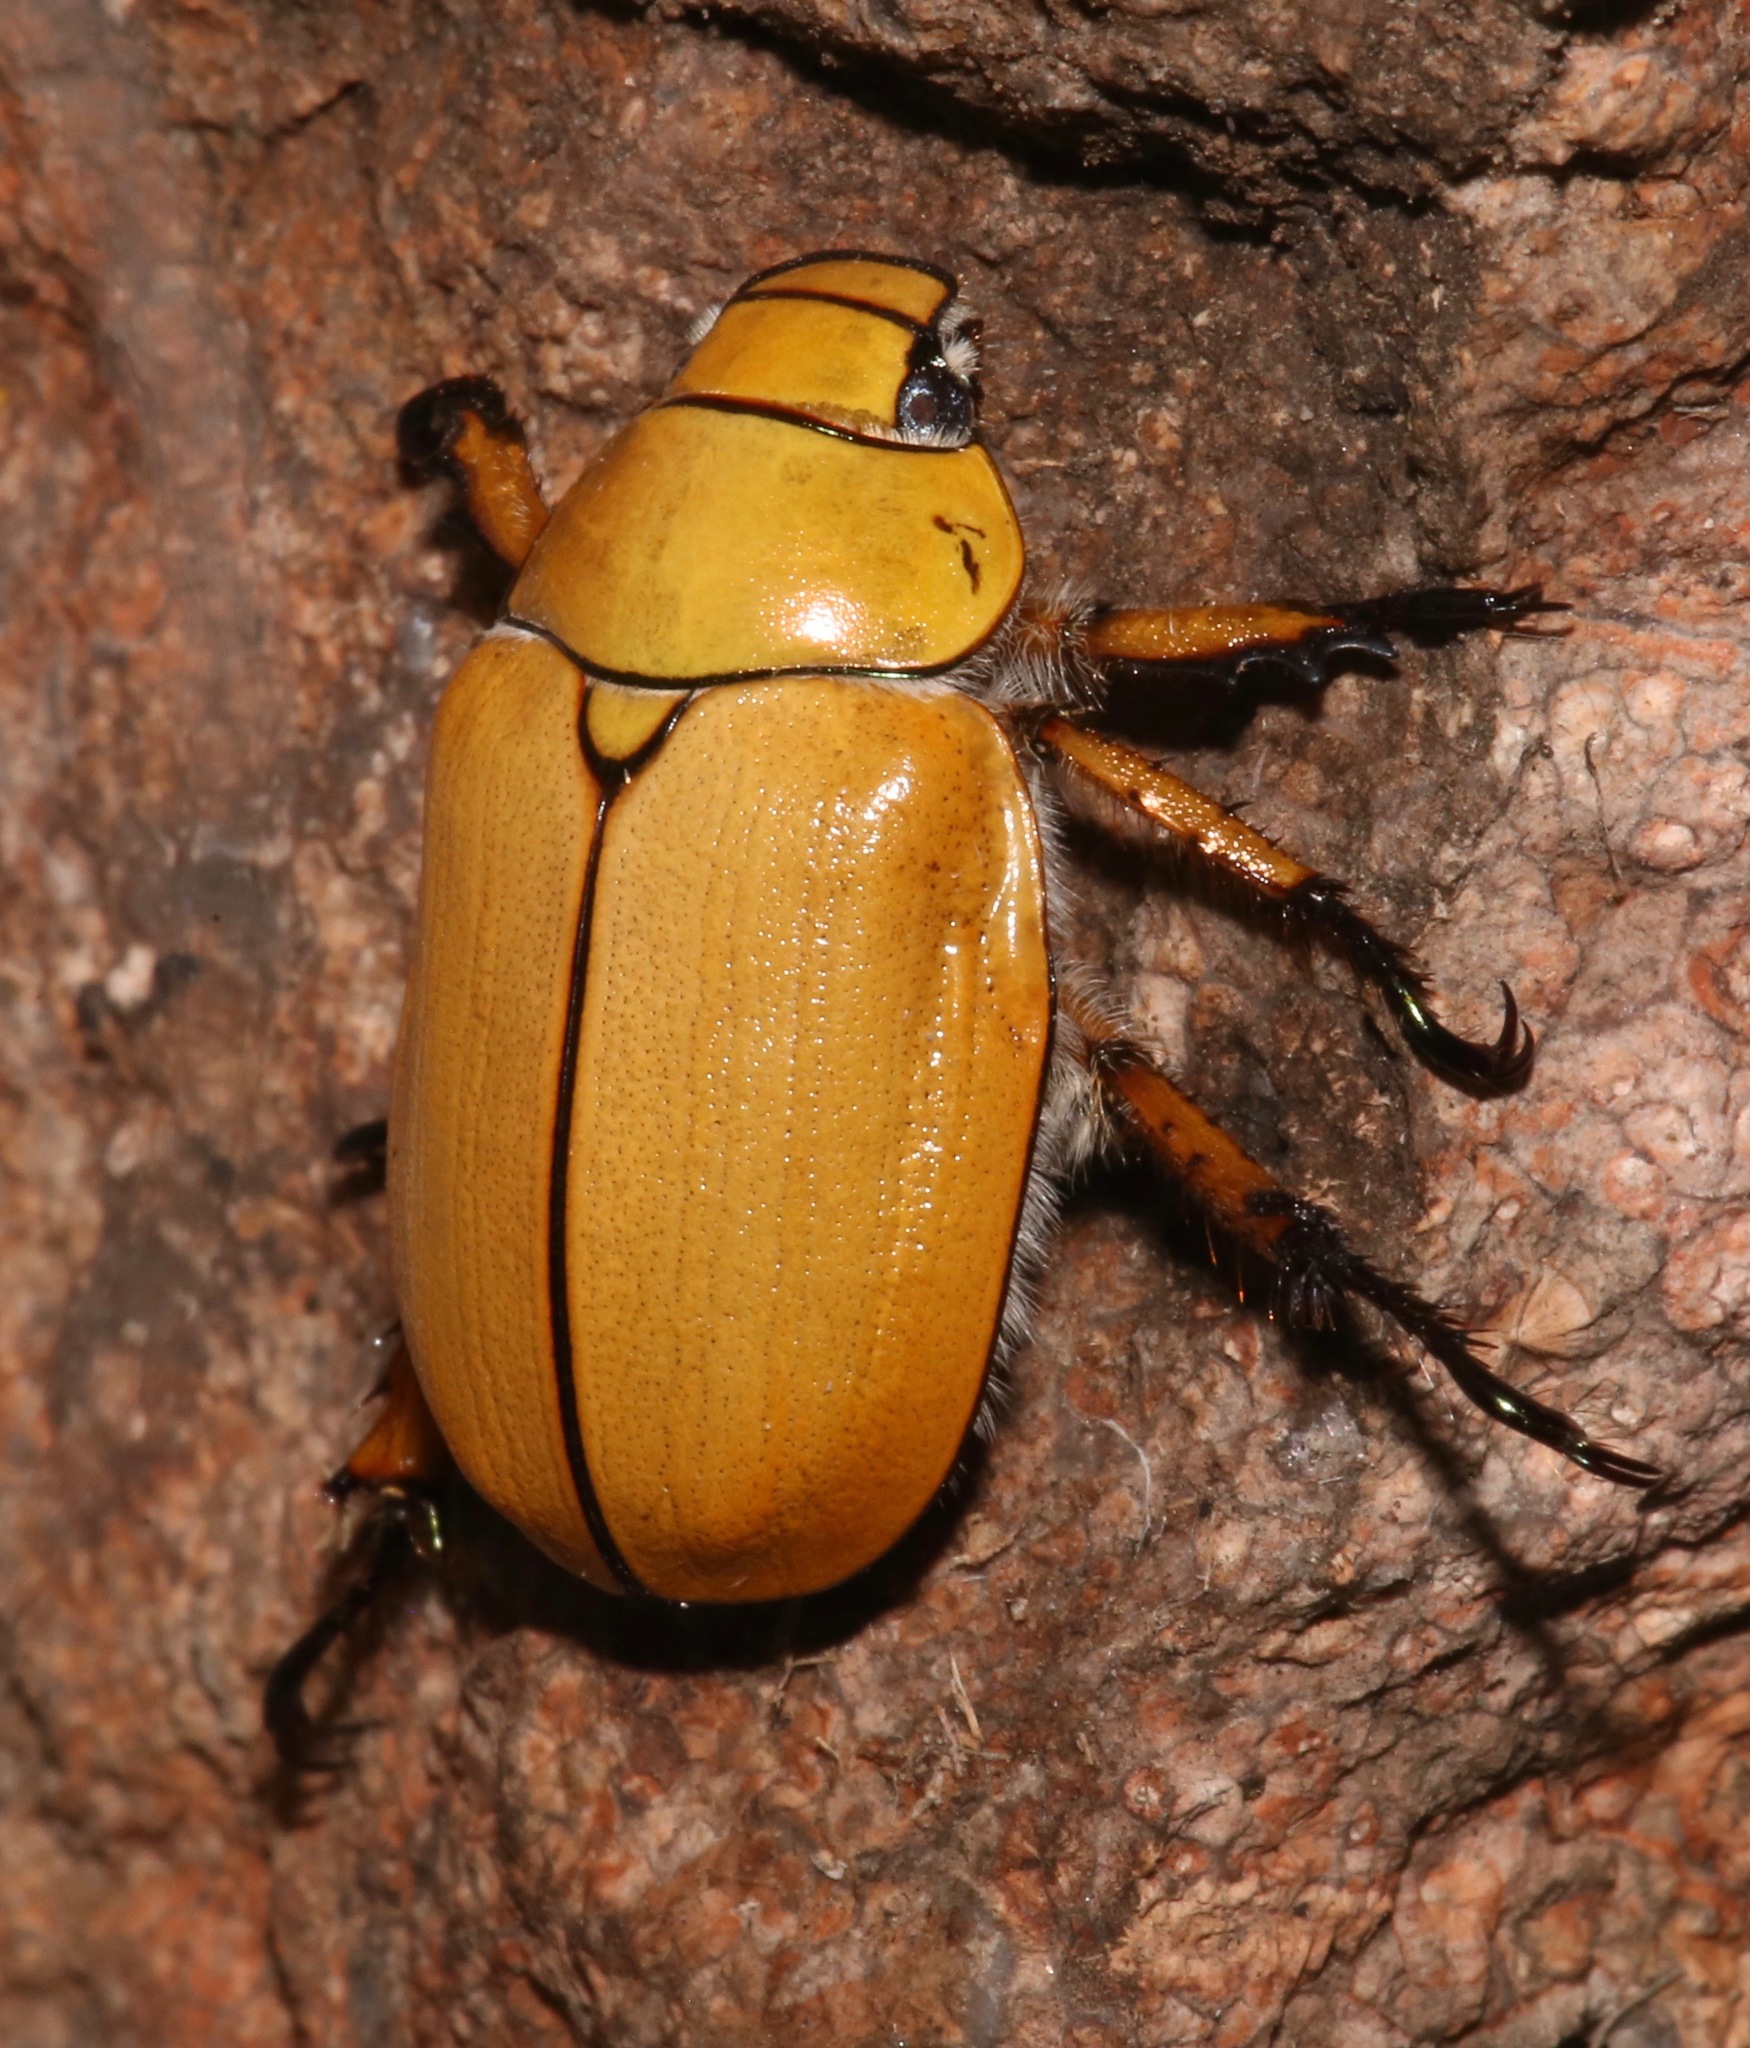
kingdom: Animalia
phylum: Arthropoda
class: Insecta
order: Coleoptera
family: Scarabaeidae
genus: Cotalpa
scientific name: Cotalpa consobrina
